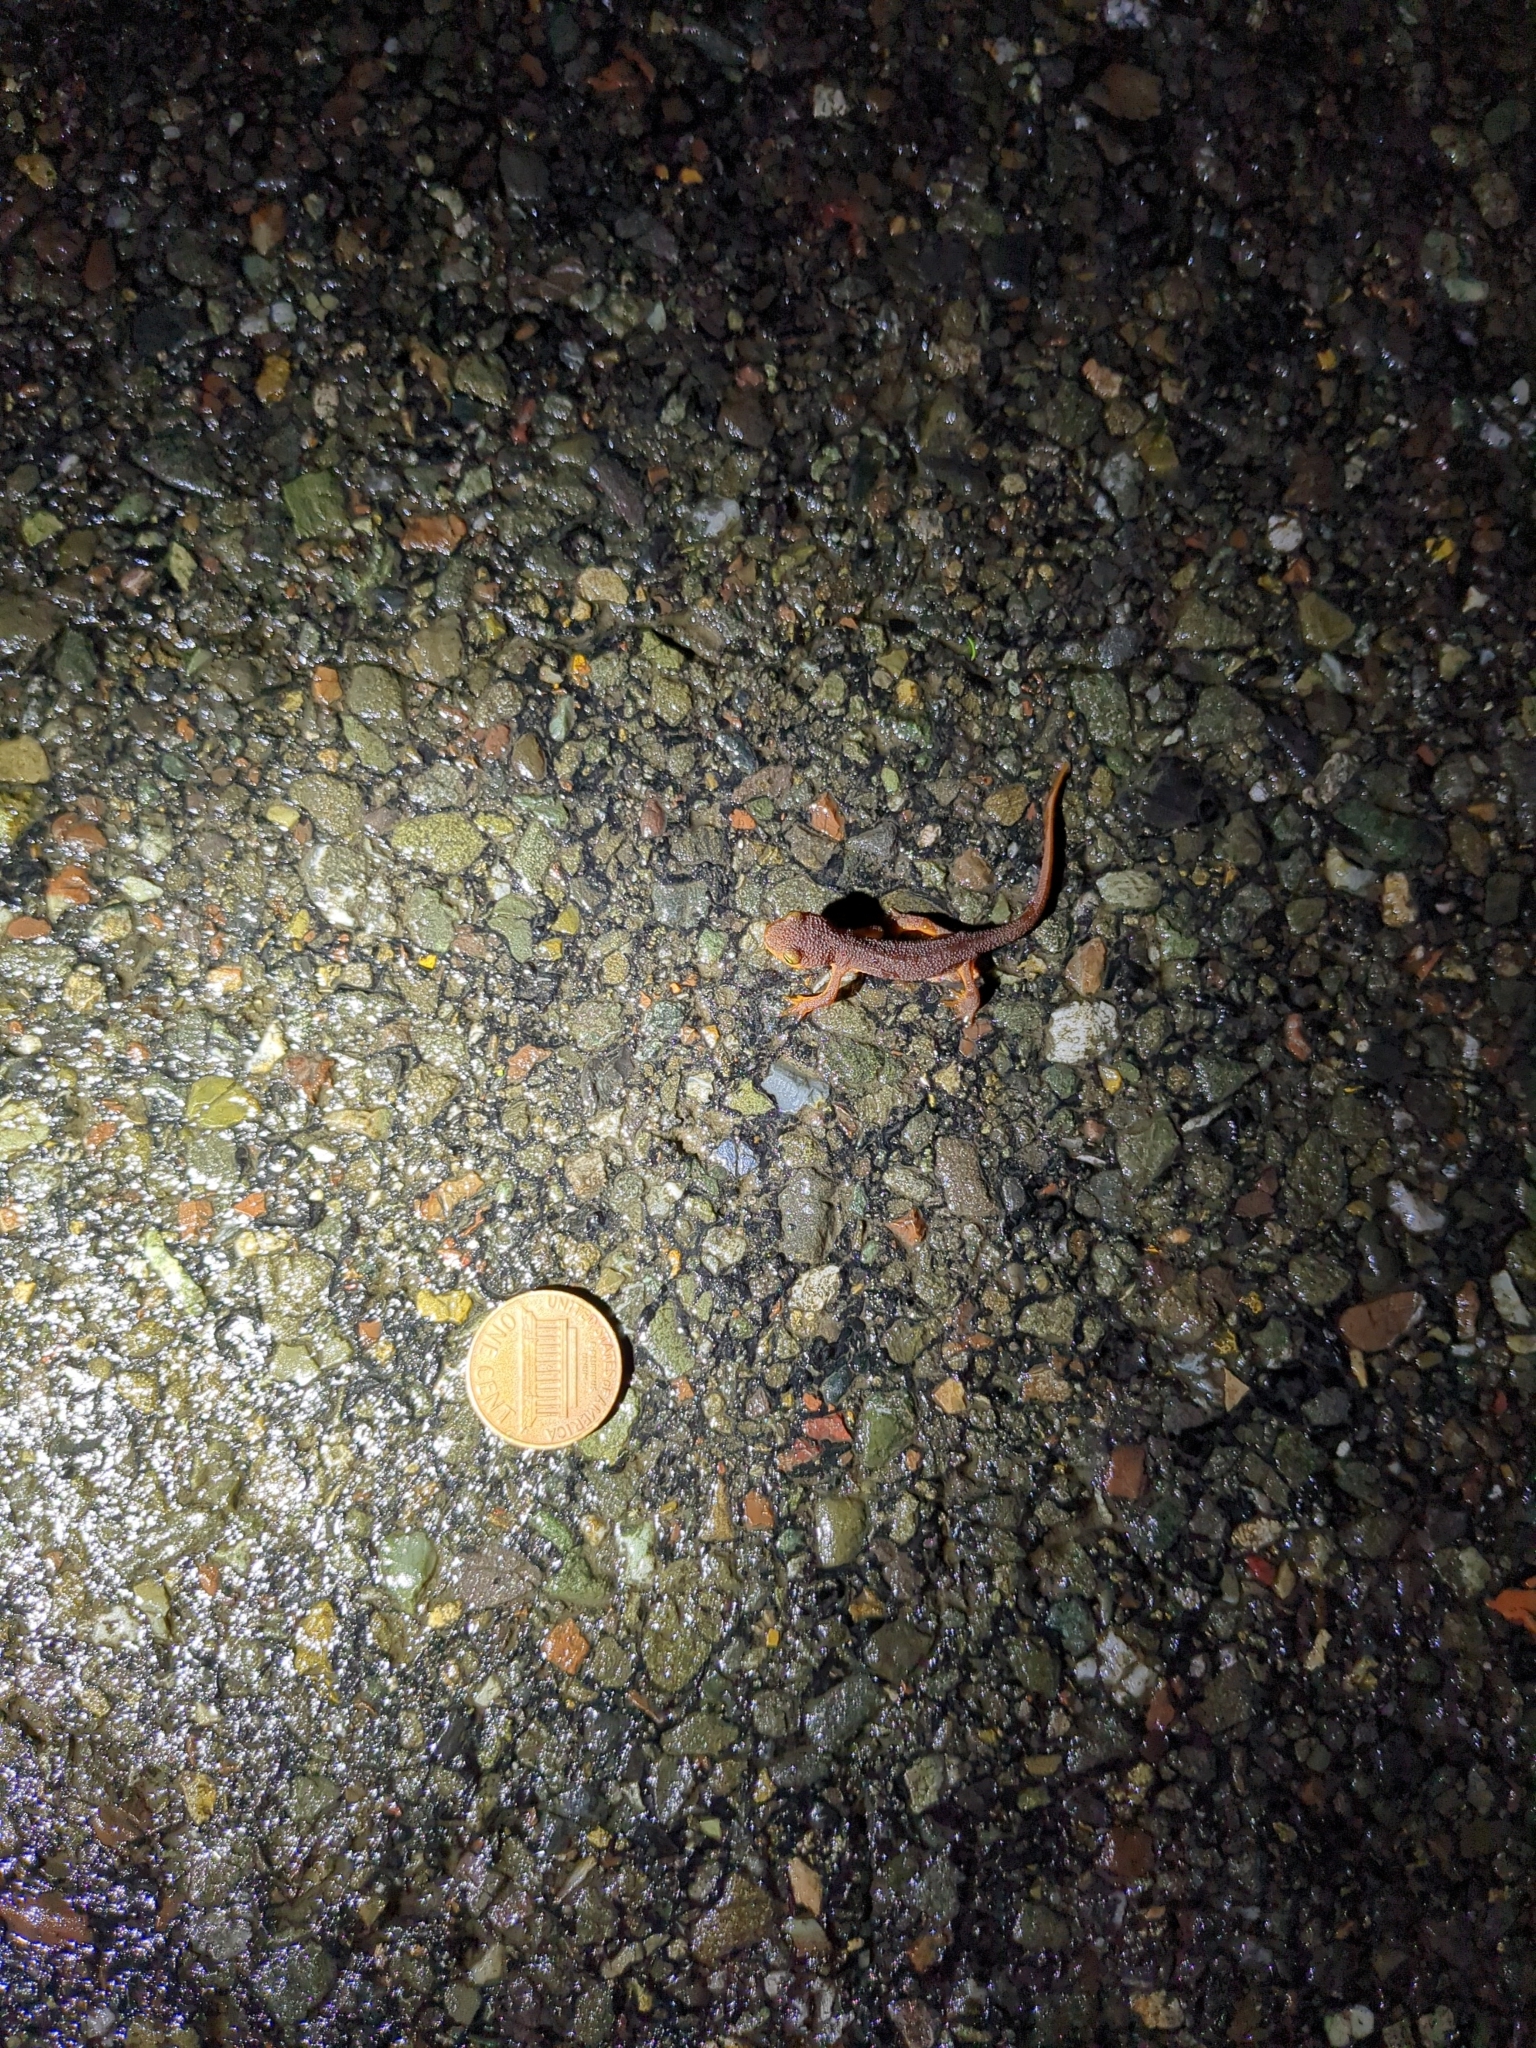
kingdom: Animalia
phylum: Chordata
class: Amphibia
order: Caudata
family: Salamandridae
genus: Taricha
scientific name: Taricha torosa
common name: California newt
